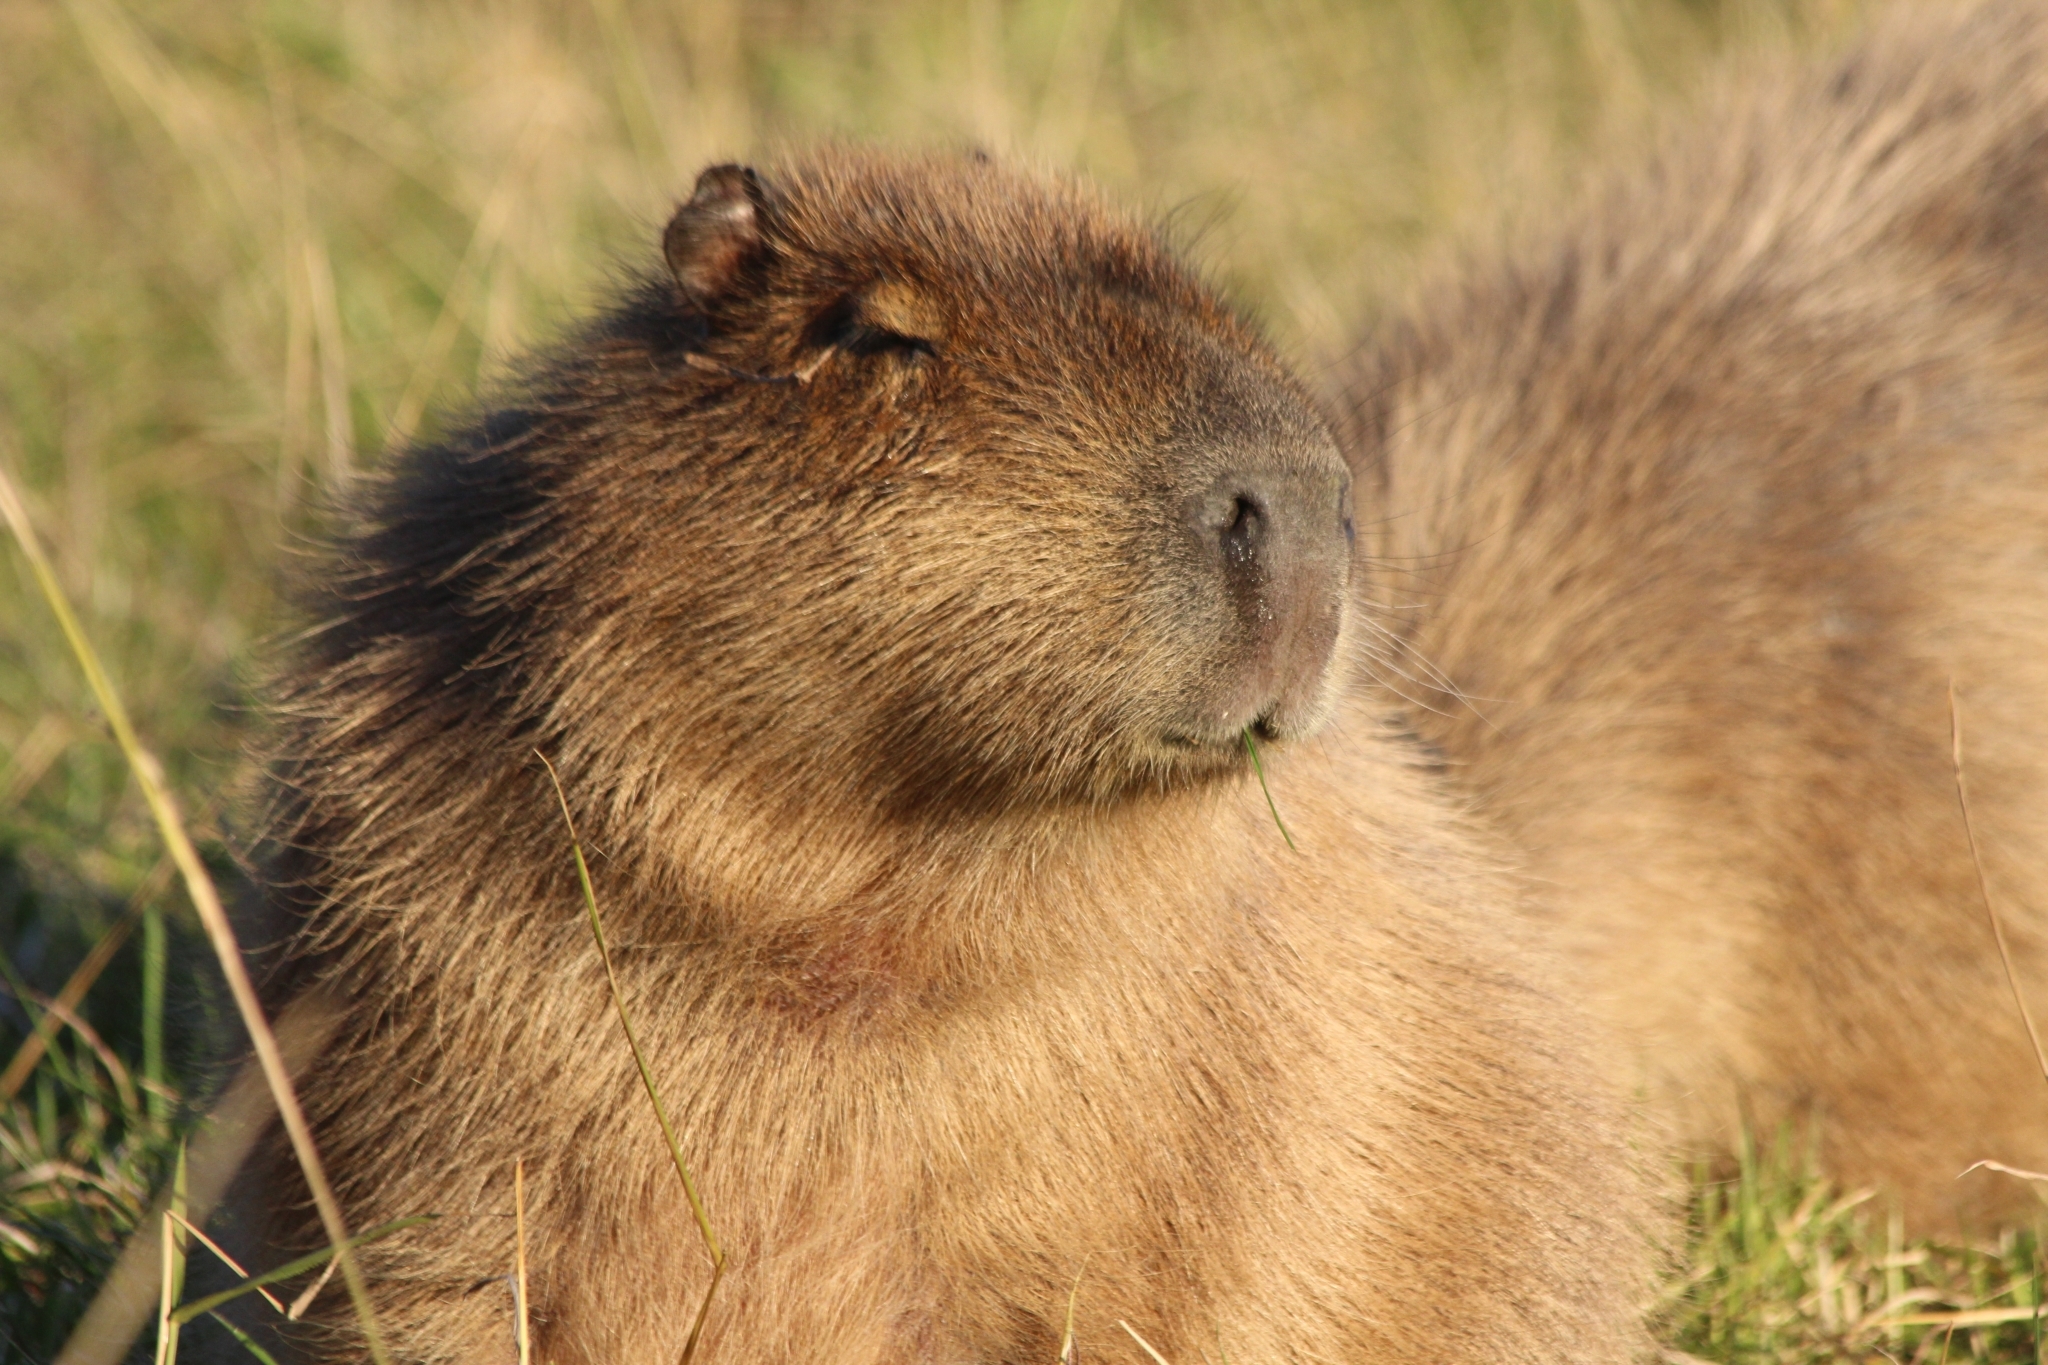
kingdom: Animalia
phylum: Chordata
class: Mammalia
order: Rodentia
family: Caviidae
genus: Hydrochoerus
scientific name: Hydrochoerus hydrochaeris
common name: Capybara
